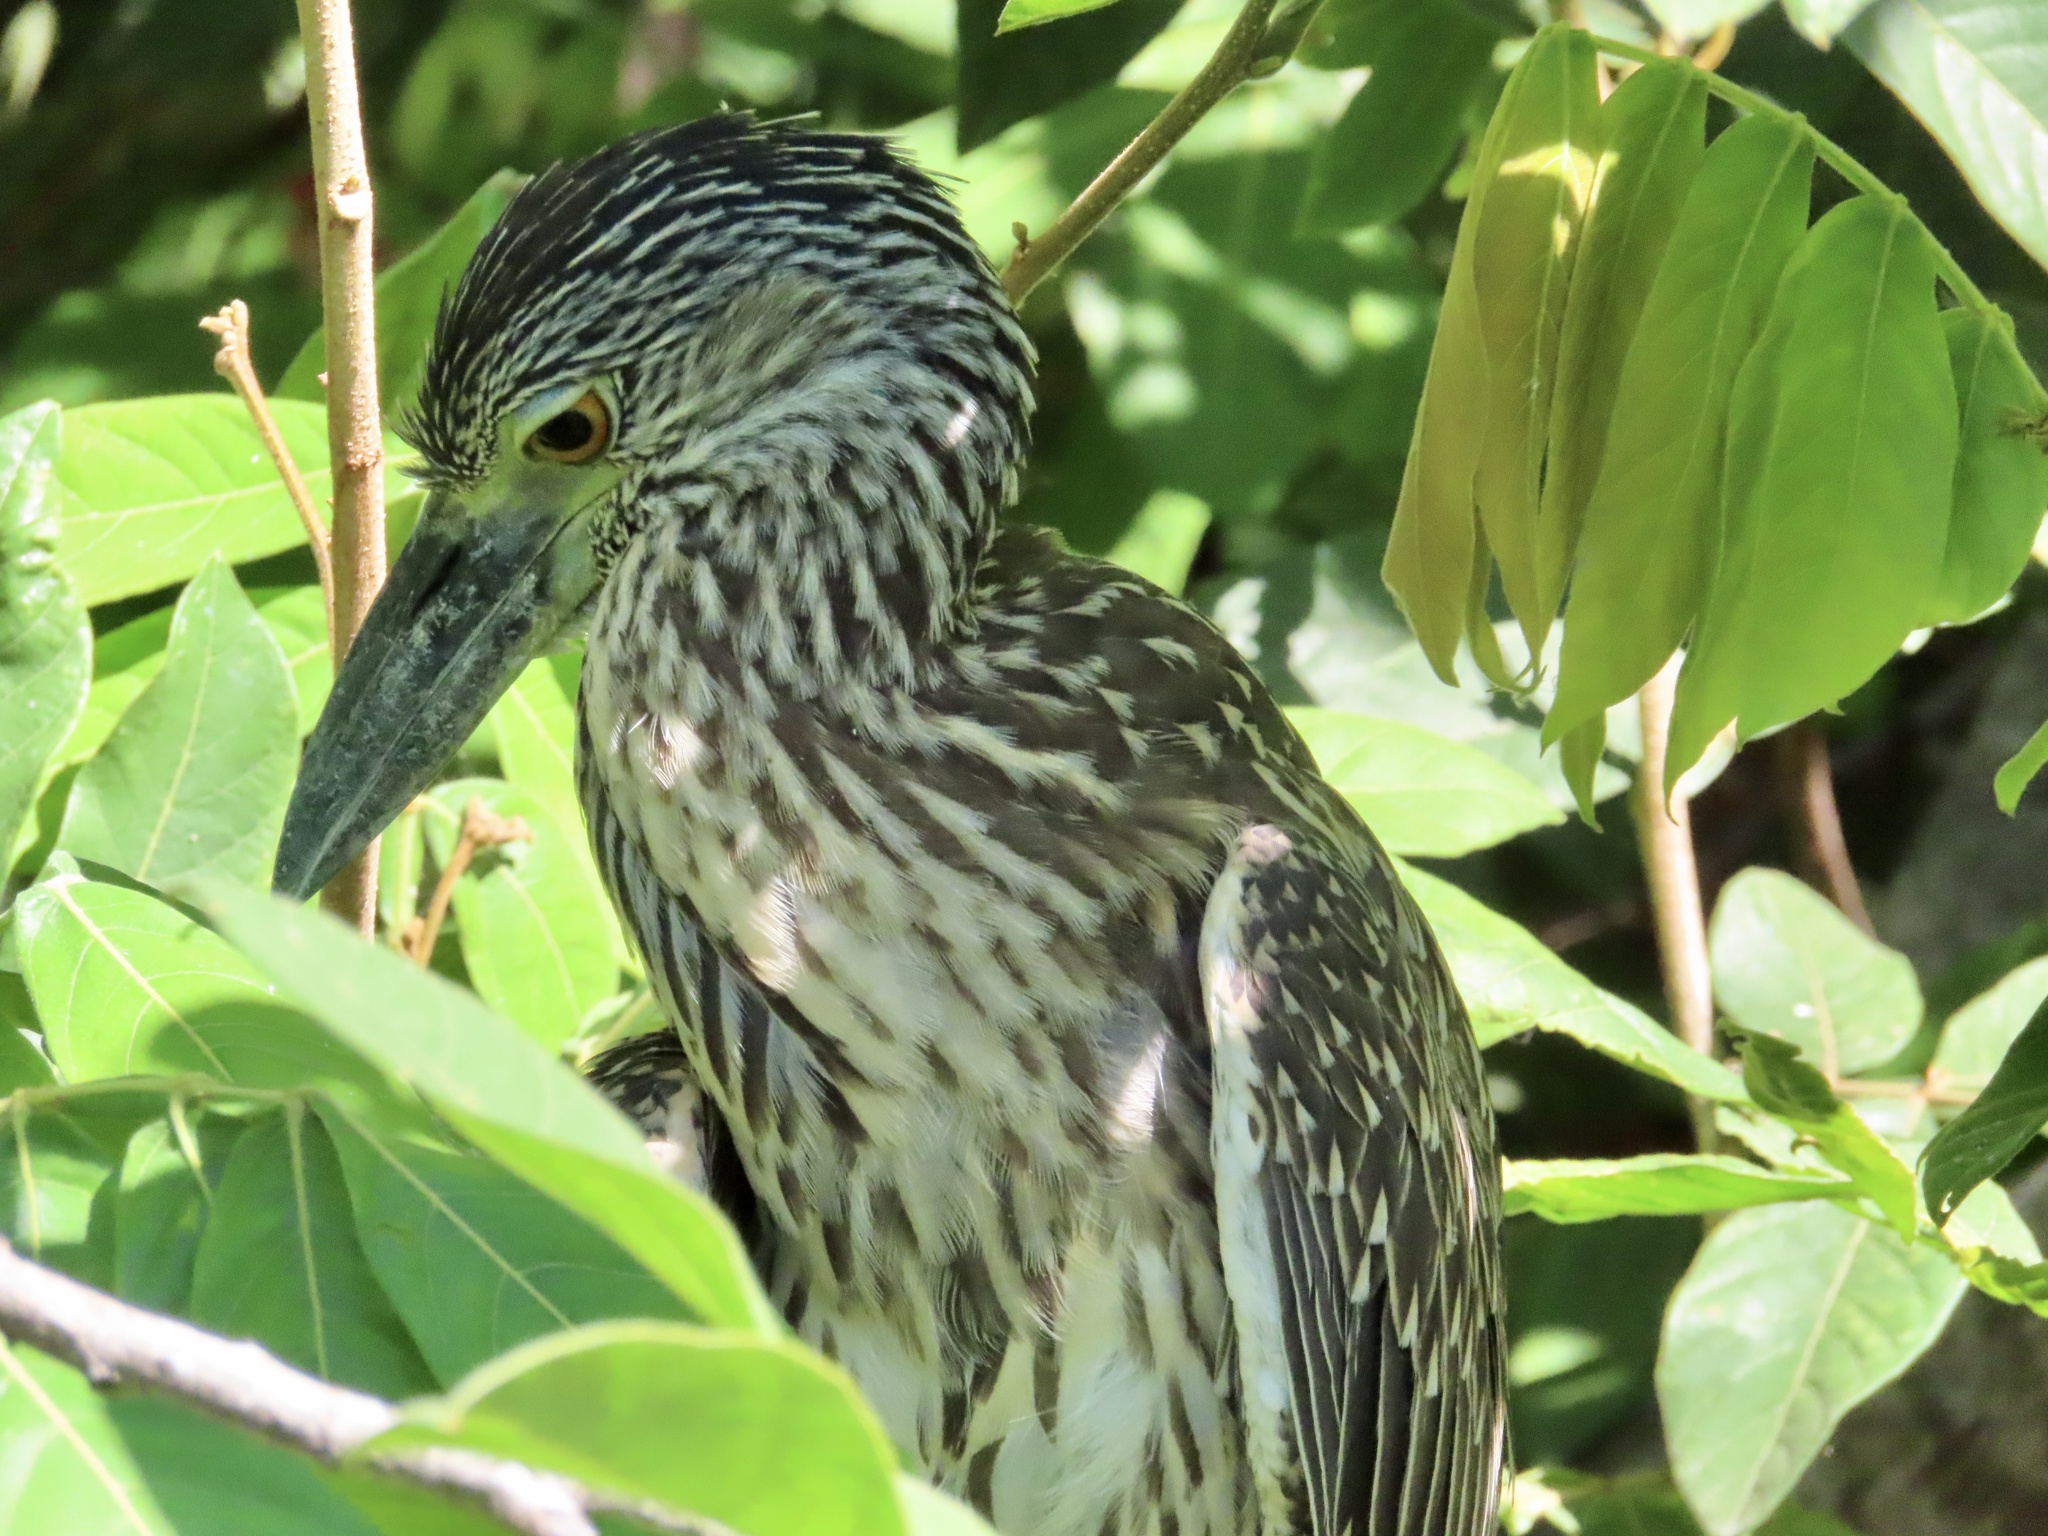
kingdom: Animalia
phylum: Chordata
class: Aves
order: Pelecaniformes
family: Ardeidae
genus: Nyctanassa
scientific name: Nyctanassa violacea
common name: Yellow-crowned night heron
